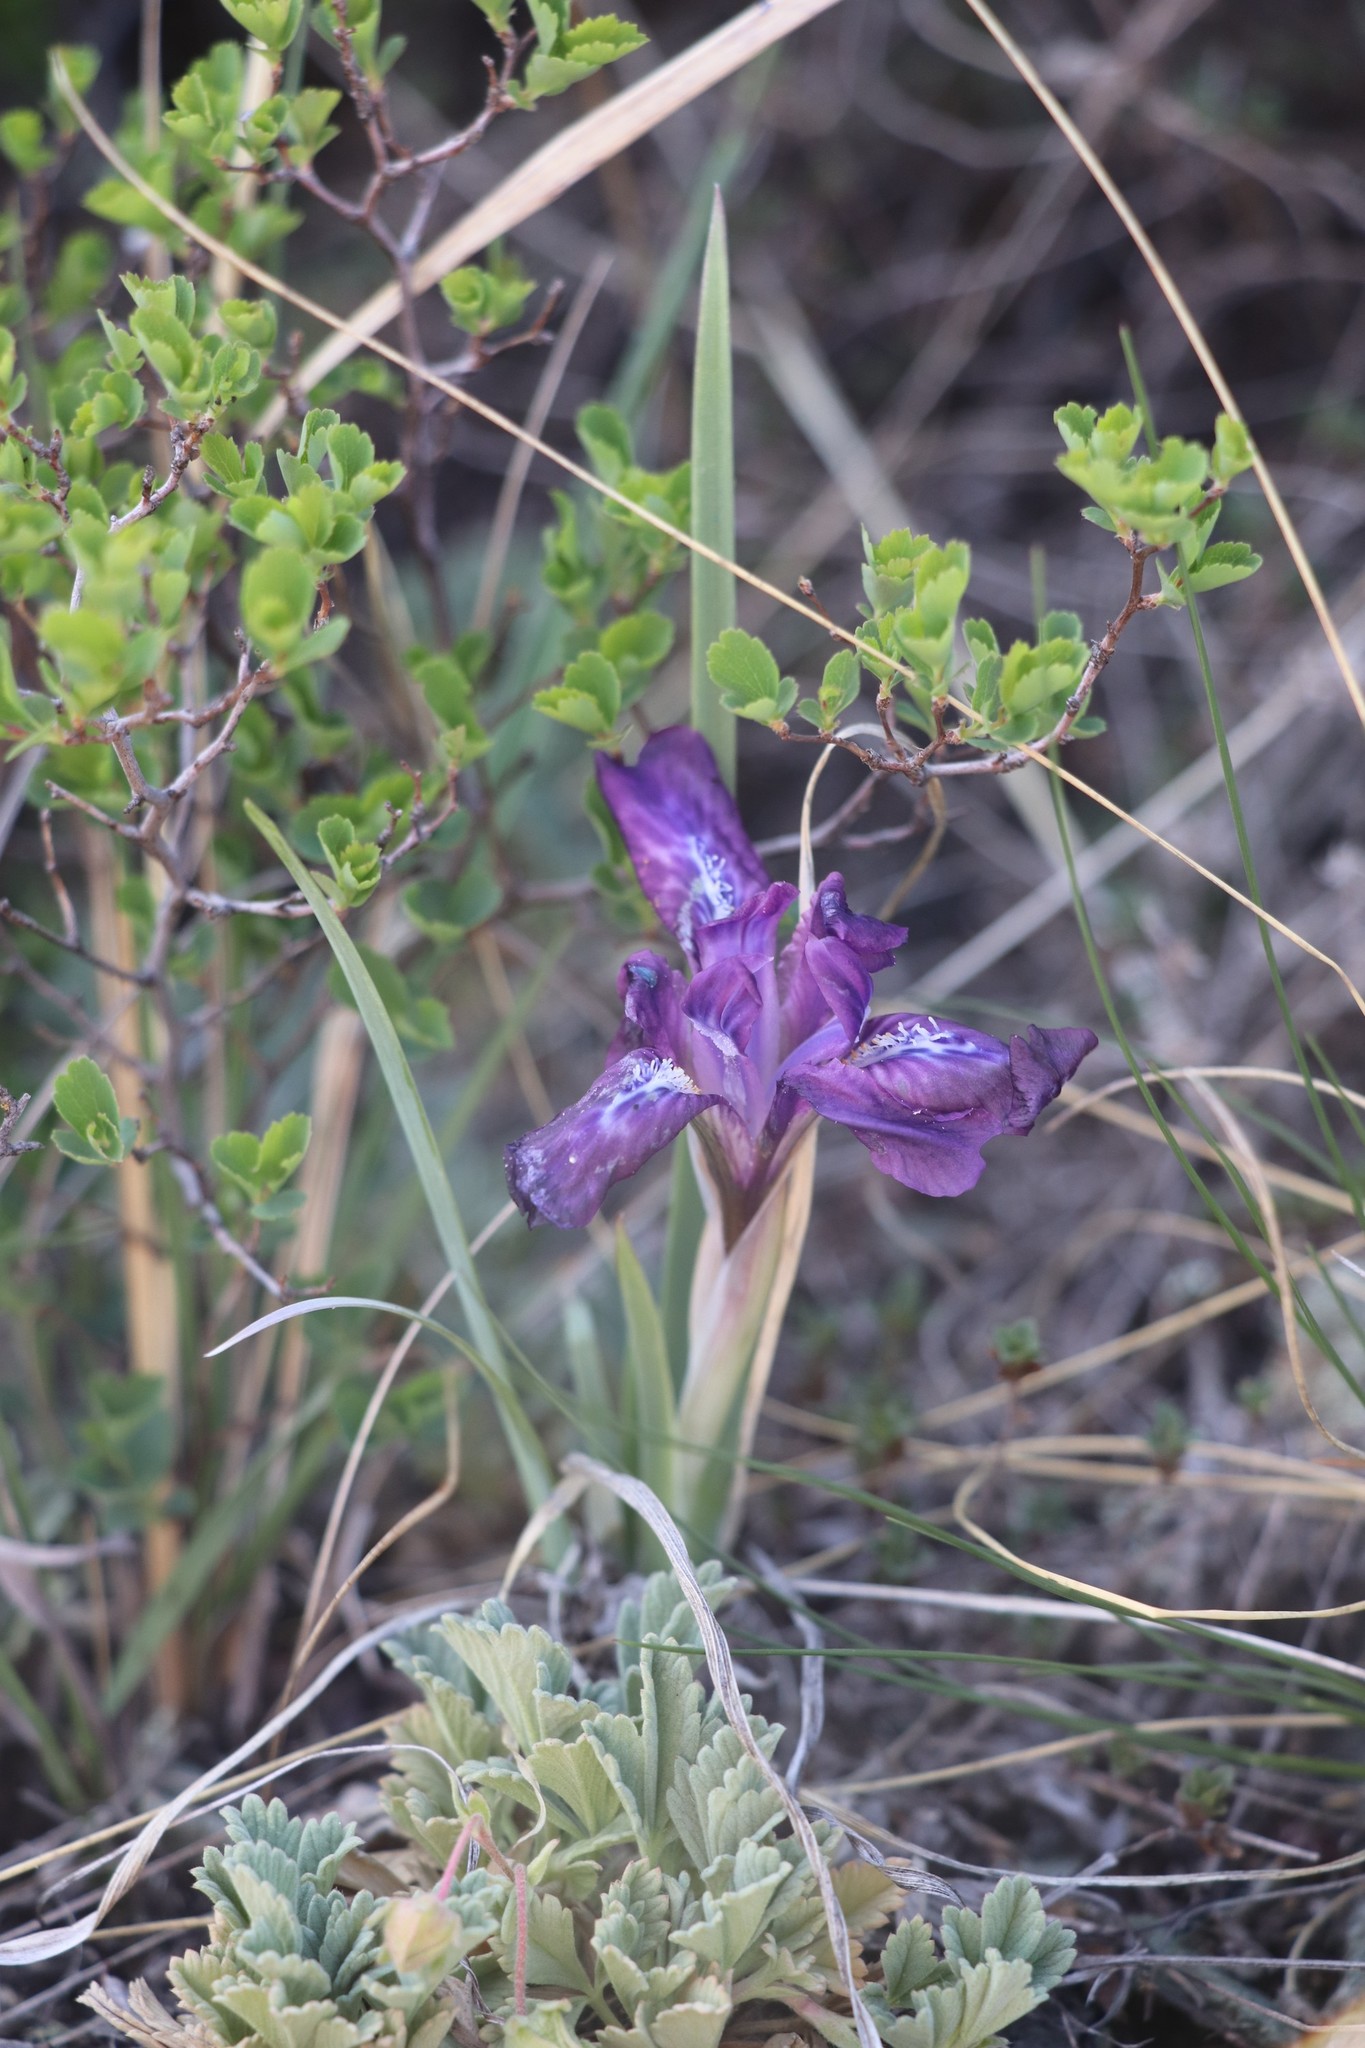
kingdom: Plantae
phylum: Tracheophyta
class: Liliopsida
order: Asparagales
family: Iridaceae
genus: Iris
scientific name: Iris tigridia
